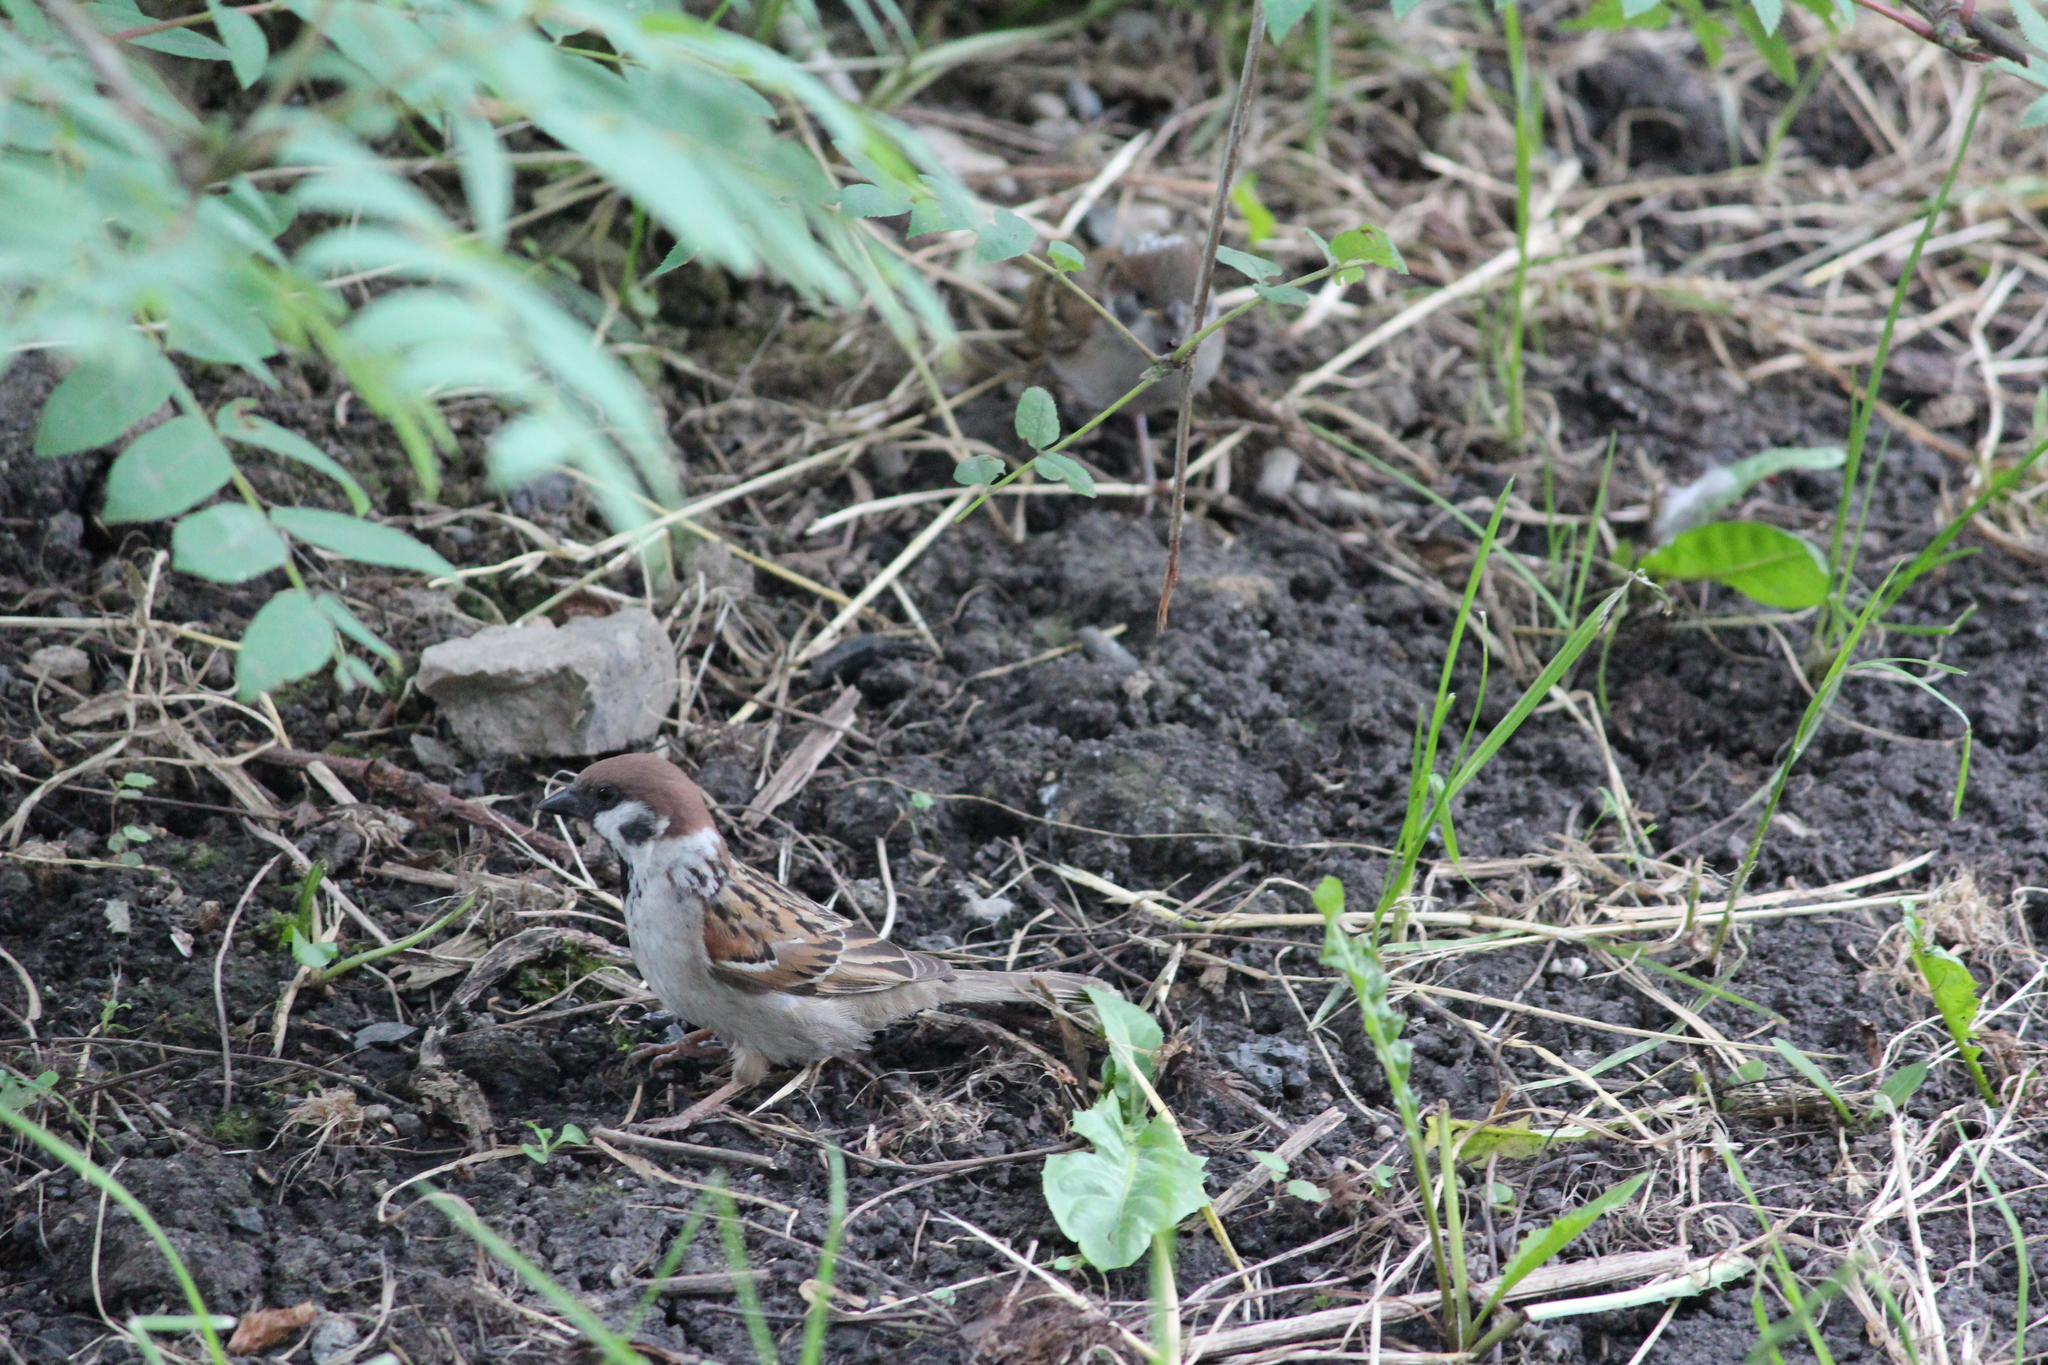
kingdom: Animalia
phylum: Chordata
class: Aves
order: Passeriformes
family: Passeridae
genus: Passer
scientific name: Passer montanus
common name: Eurasian tree sparrow
